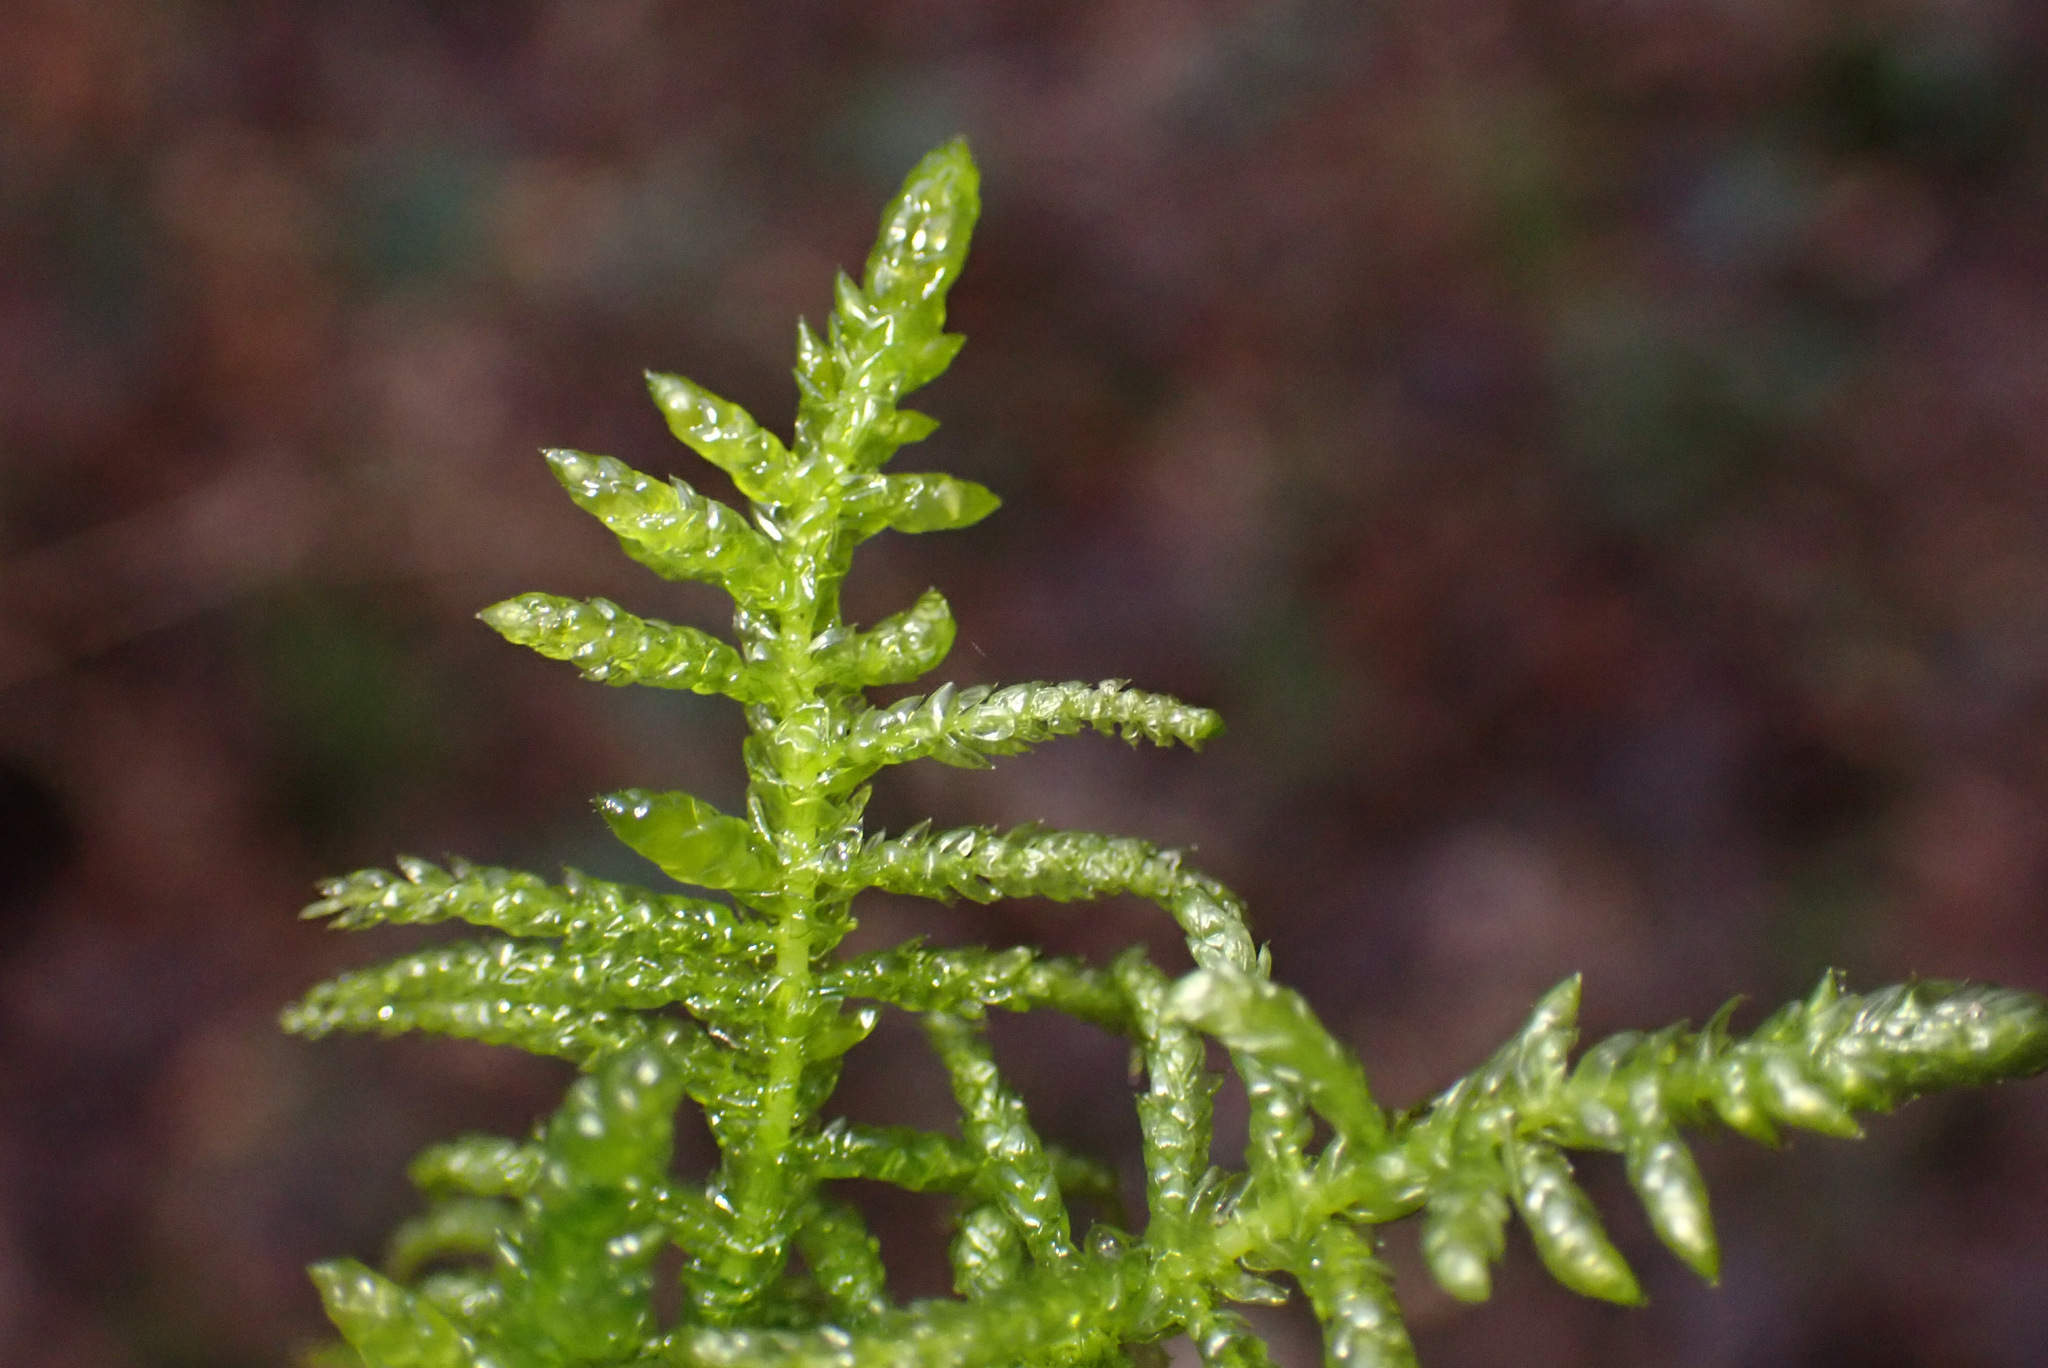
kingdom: Plantae
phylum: Bryophyta
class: Bryopsida
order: Hypnales
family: Brachytheciaceae
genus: Pseudoscleropodium
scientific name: Pseudoscleropodium purum
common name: Neat feather-moss
